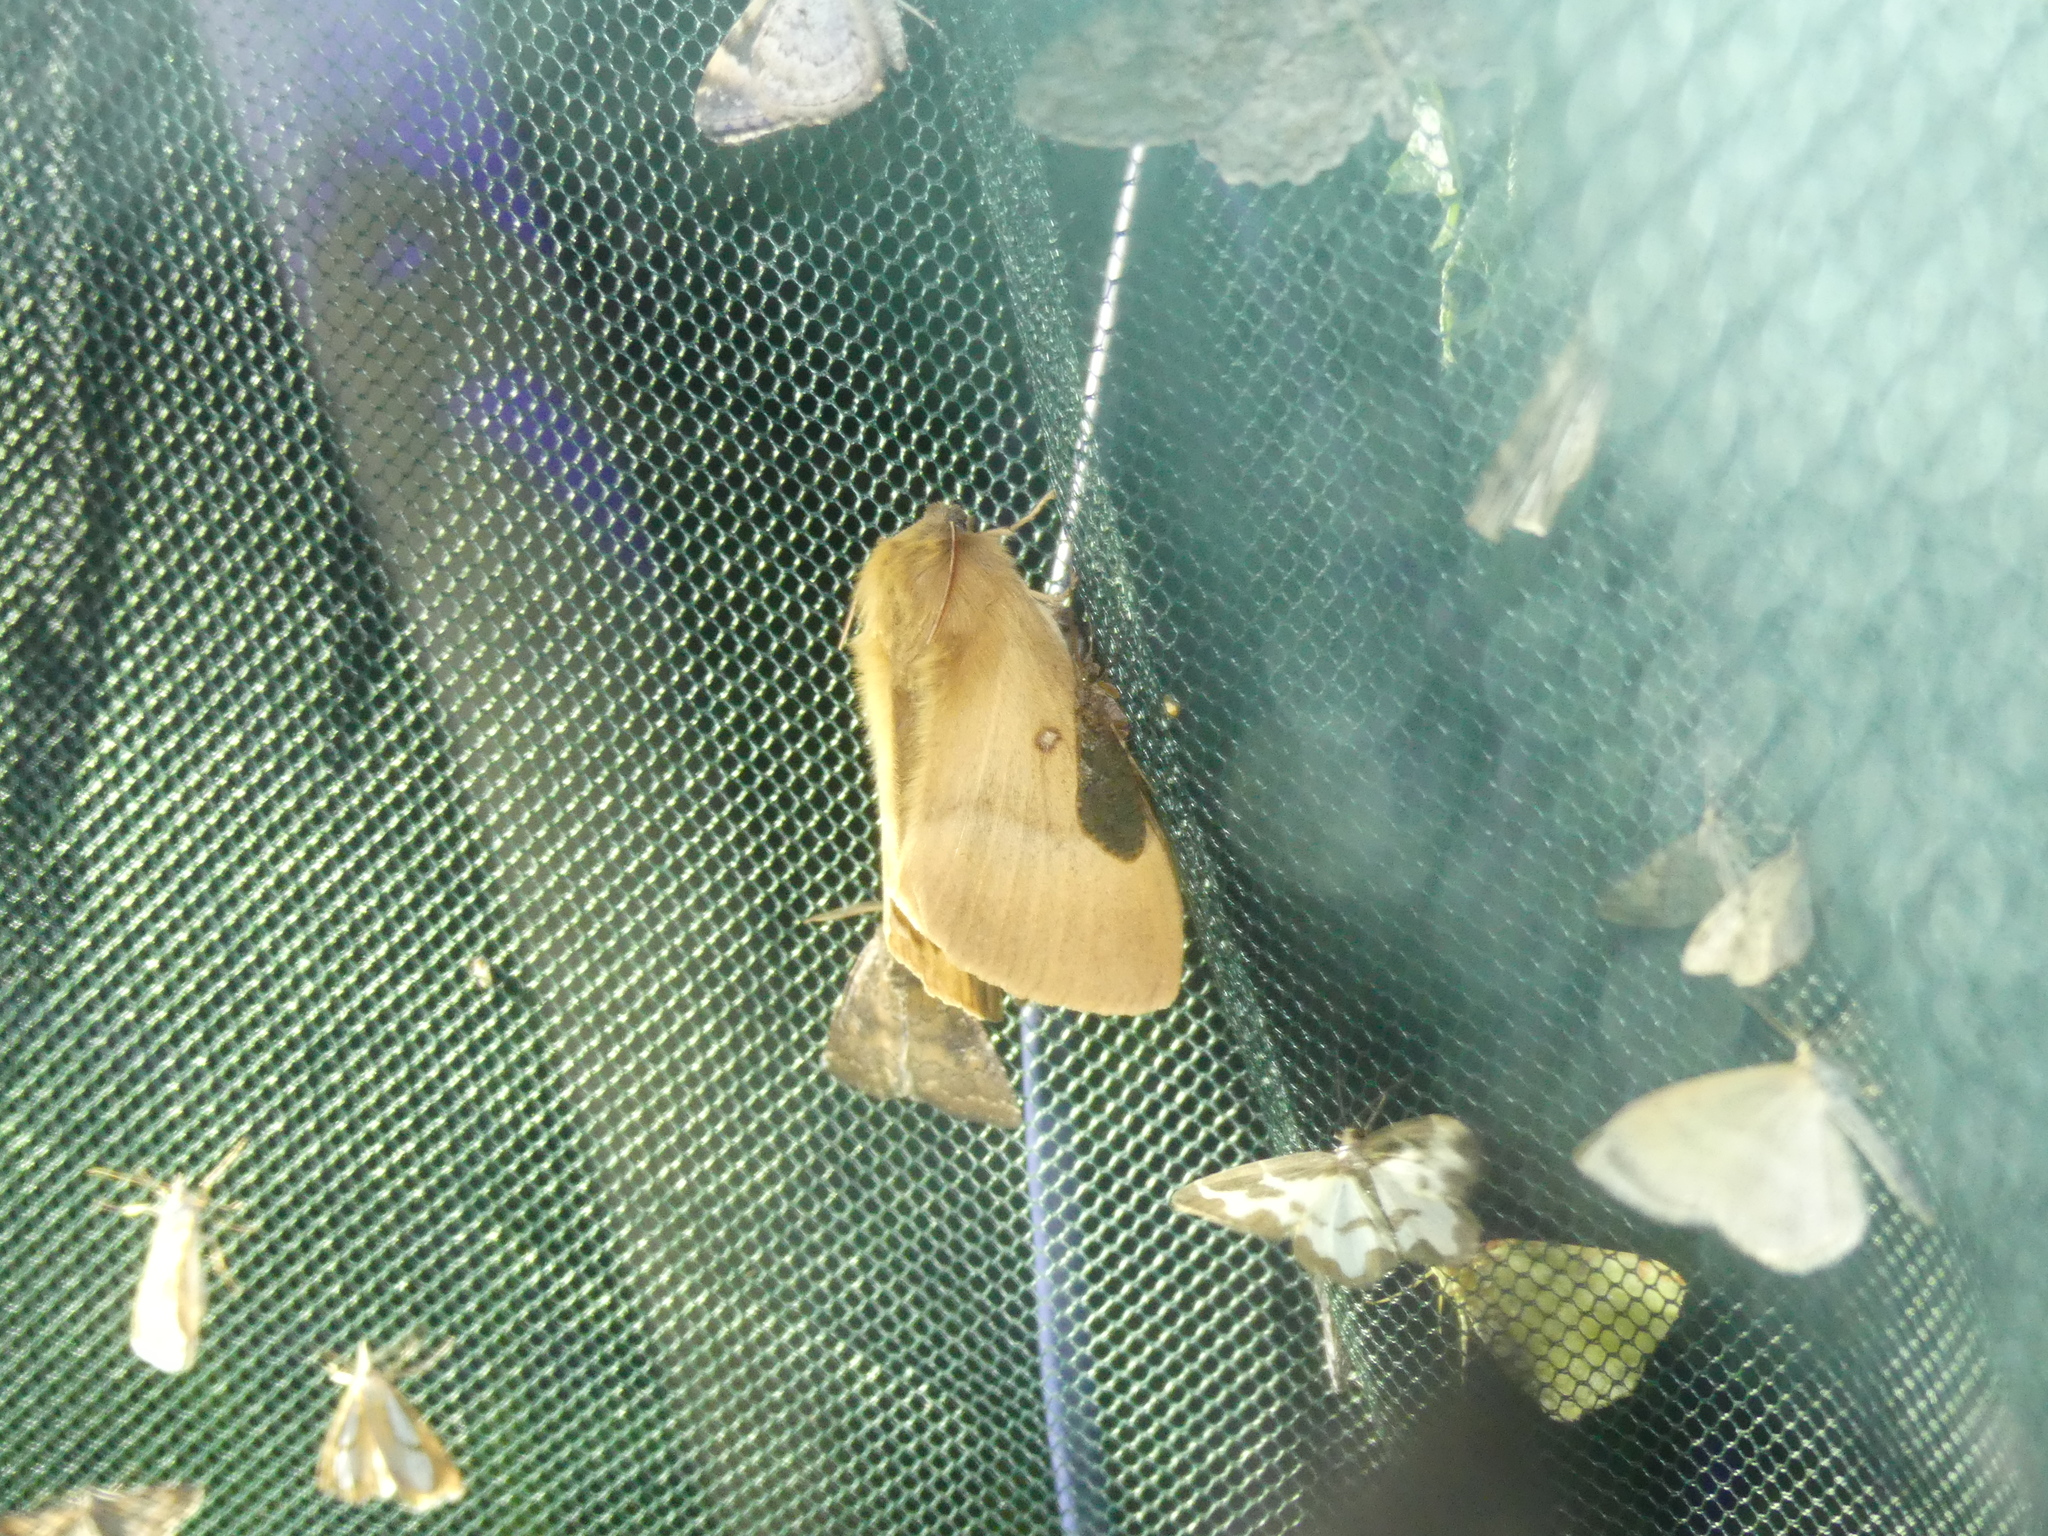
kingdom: Animalia
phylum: Arthropoda
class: Insecta
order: Lepidoptera
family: Lasiocampidae
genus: Lasiocampa
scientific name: Lasiocampa quercus
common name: Oak eggar
